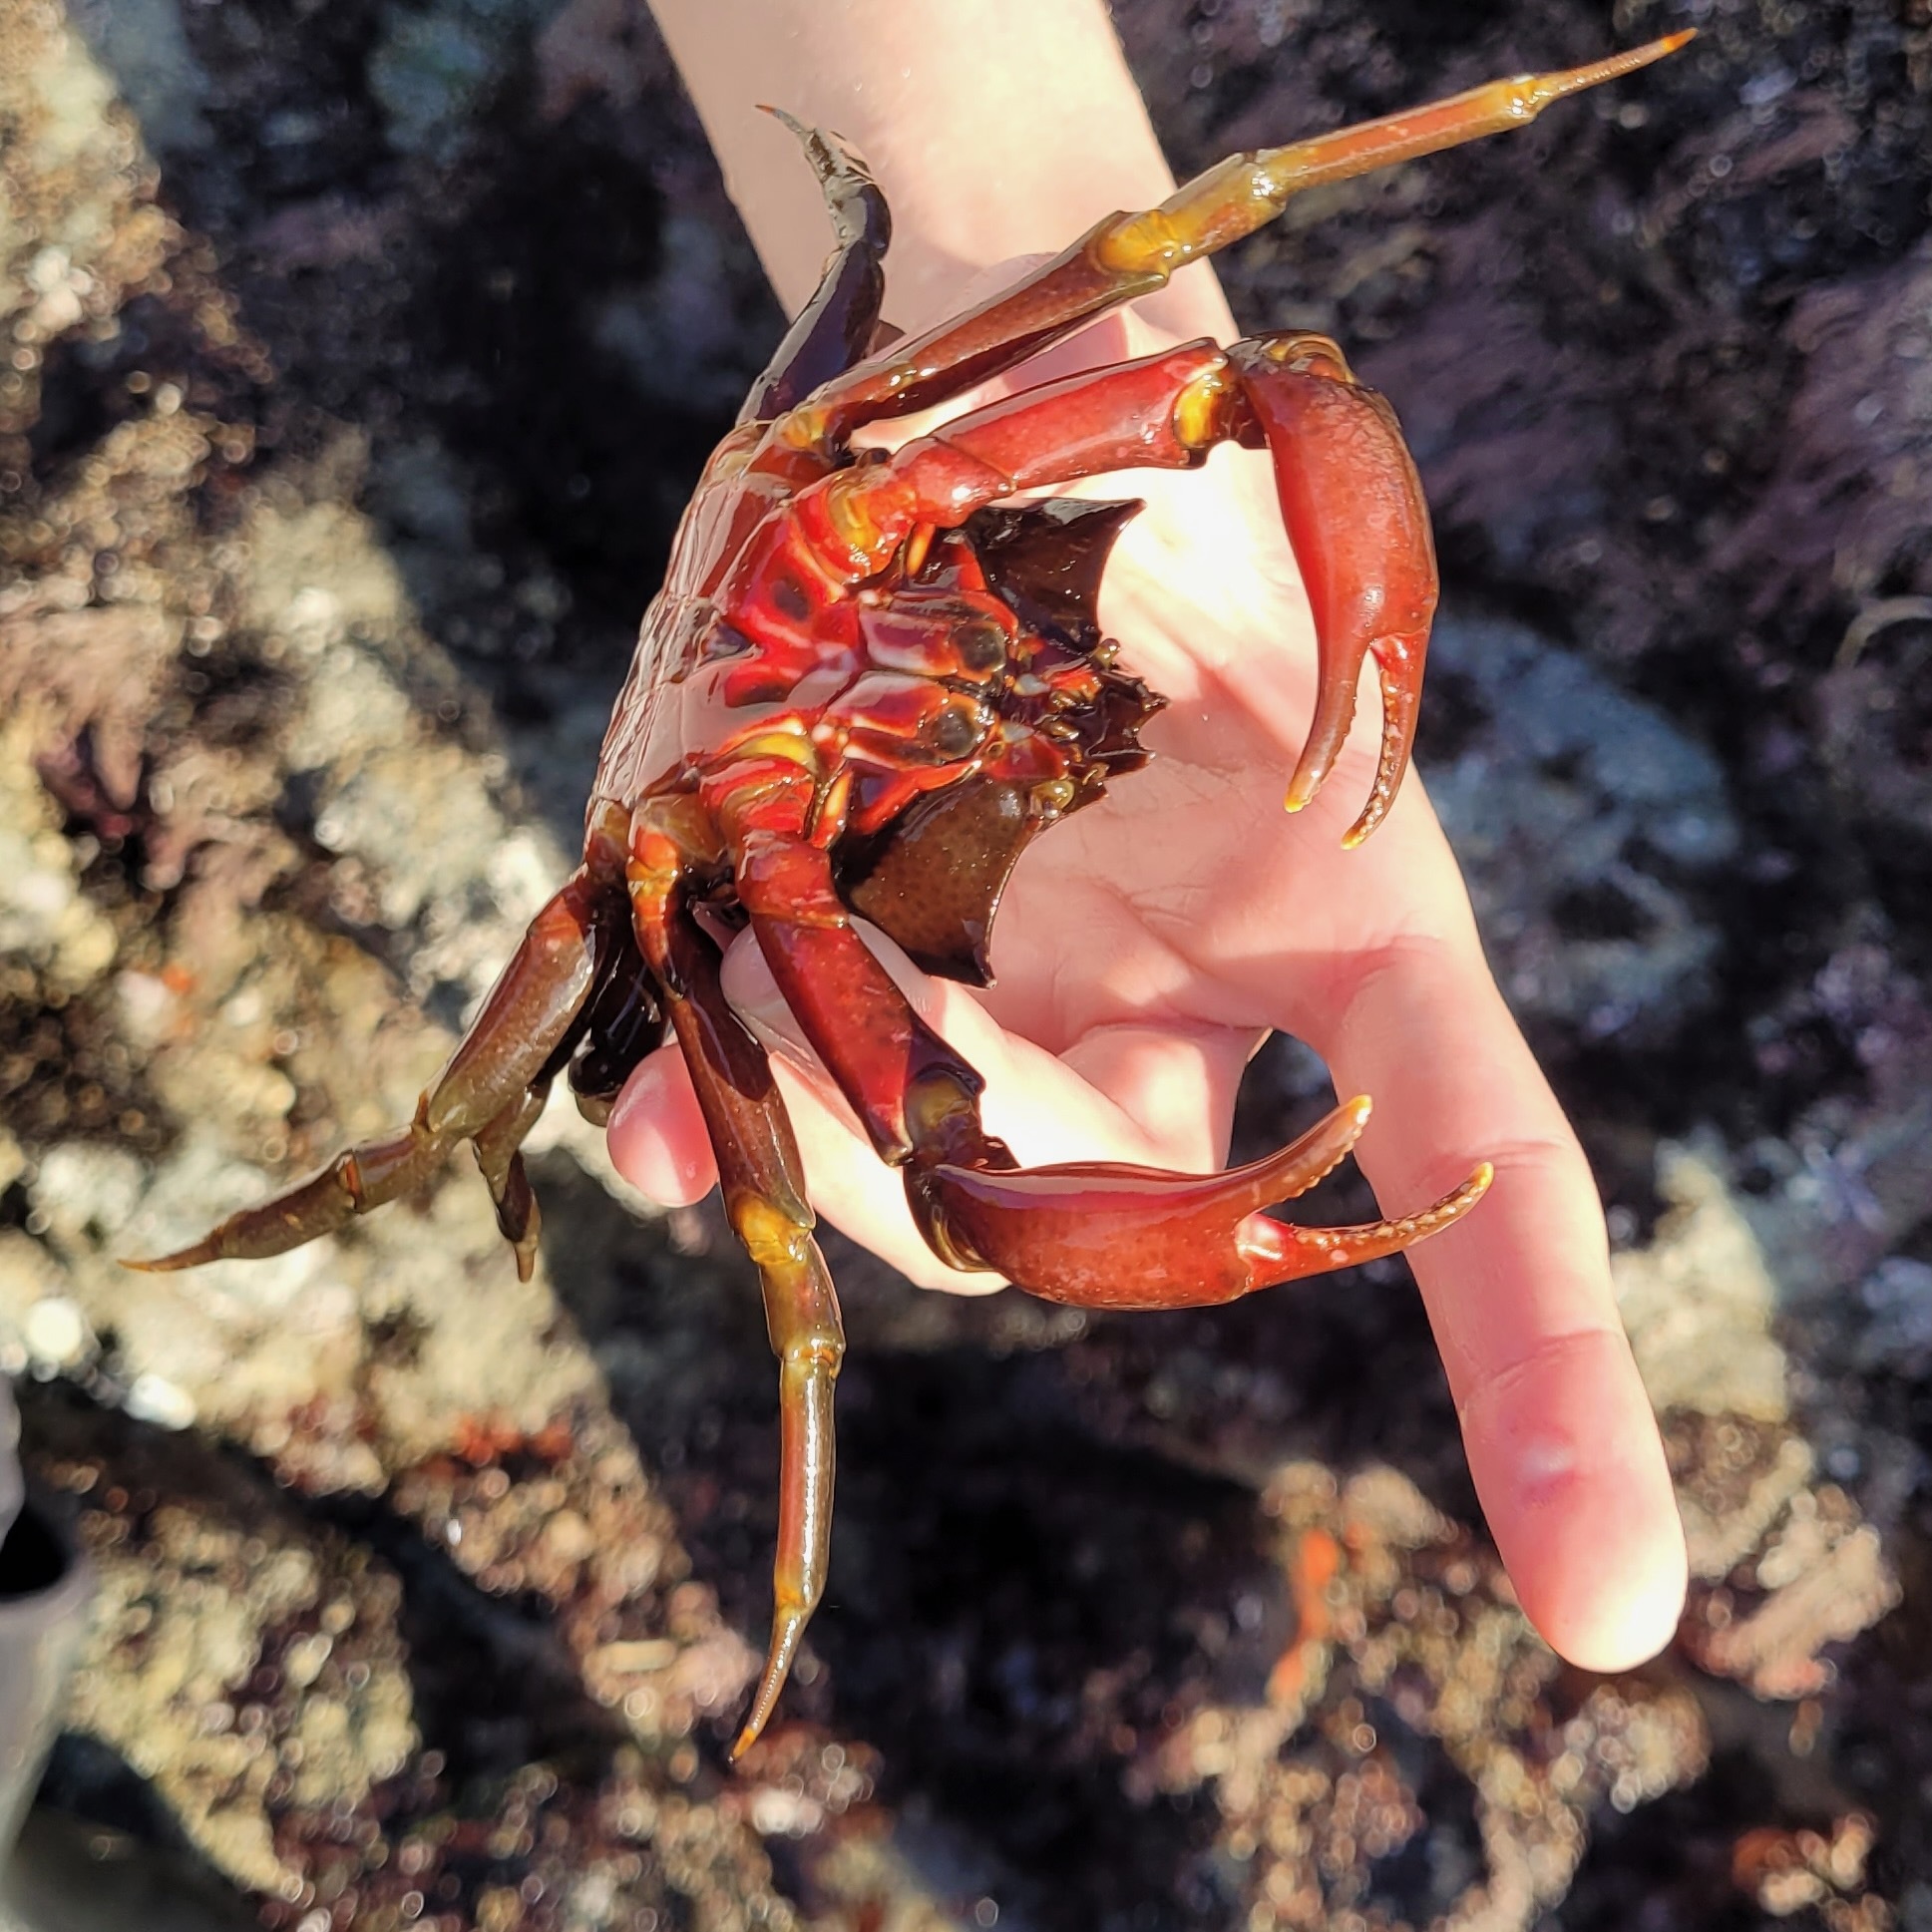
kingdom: Animalia
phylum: Arthropoda
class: Malacostraca
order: Decapoda
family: Epialtidae
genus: Pugettia
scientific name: Pugettia producta
